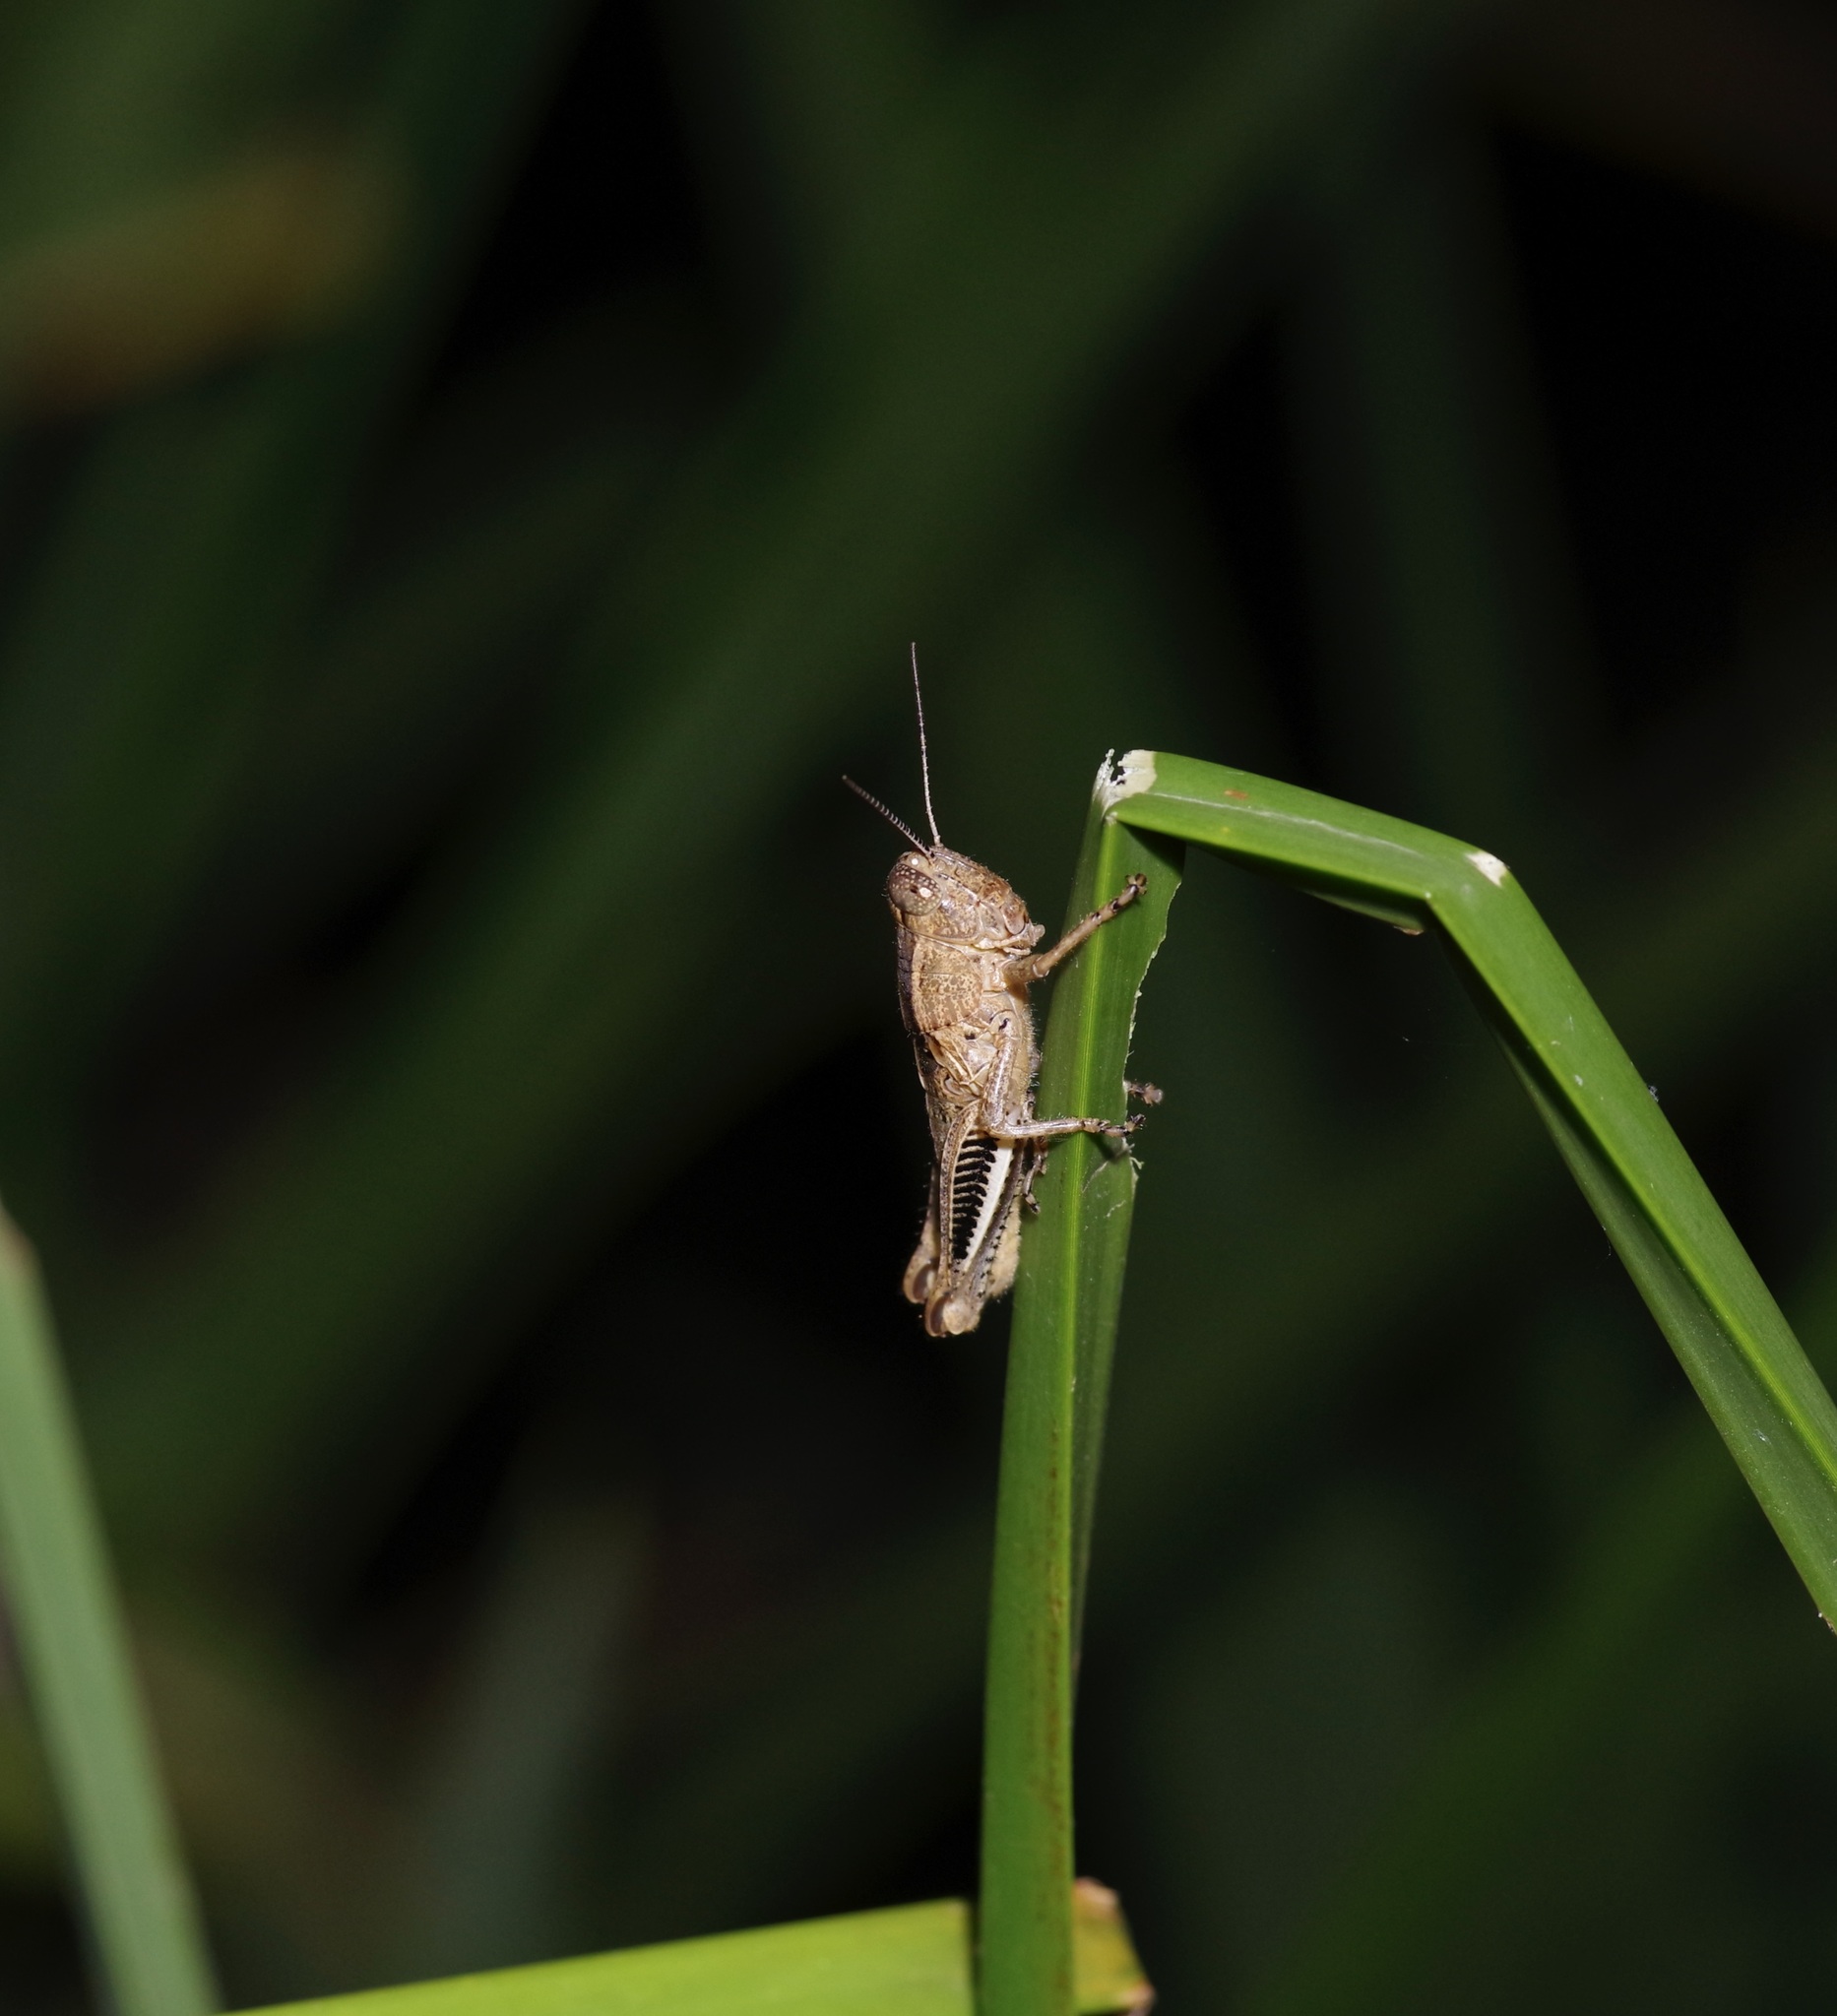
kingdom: Animalia
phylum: Arthropoda
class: Insecta
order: Orthoptera
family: Acrididae
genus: Melanoplus
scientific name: Melanoplus differentialis
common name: Differential grasshopper
